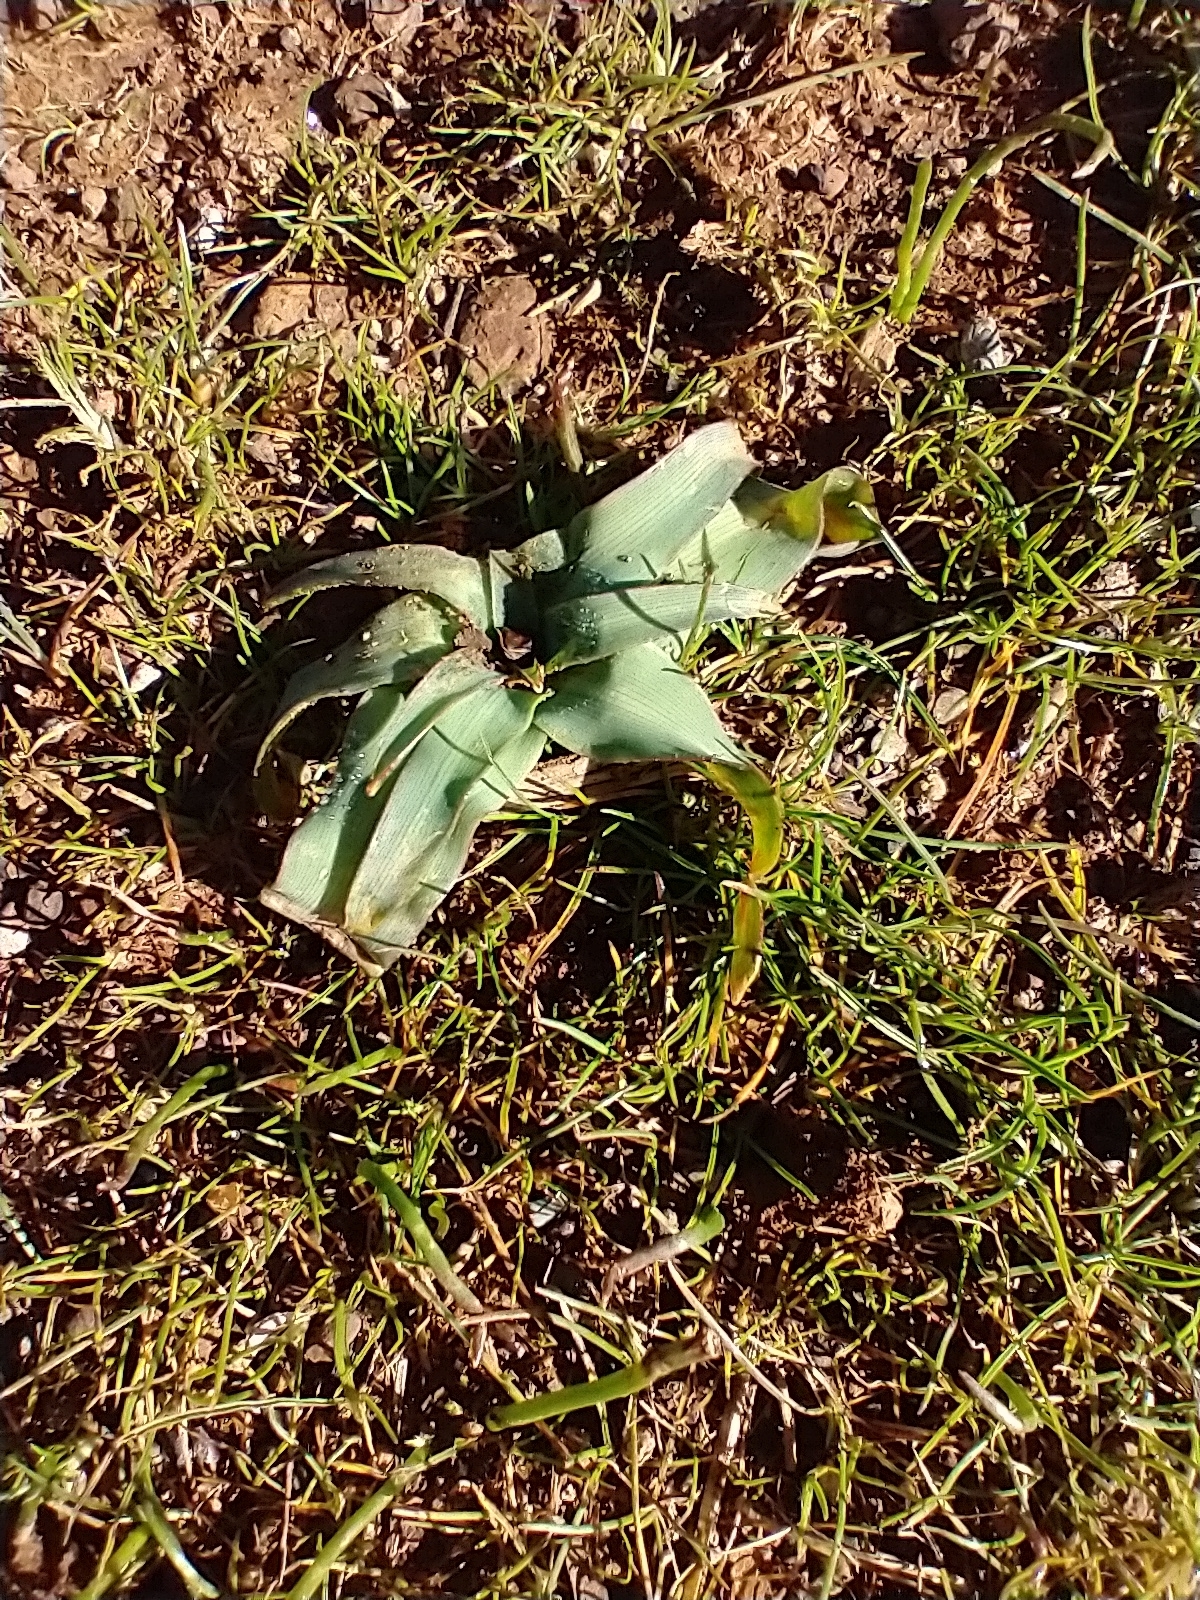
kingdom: Plantae
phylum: Tracheophyta
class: Liliopsida
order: Asparagales
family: Asparagaceae
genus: Chlorogalum
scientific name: Chlorogalum pomeridianum
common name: Amole
